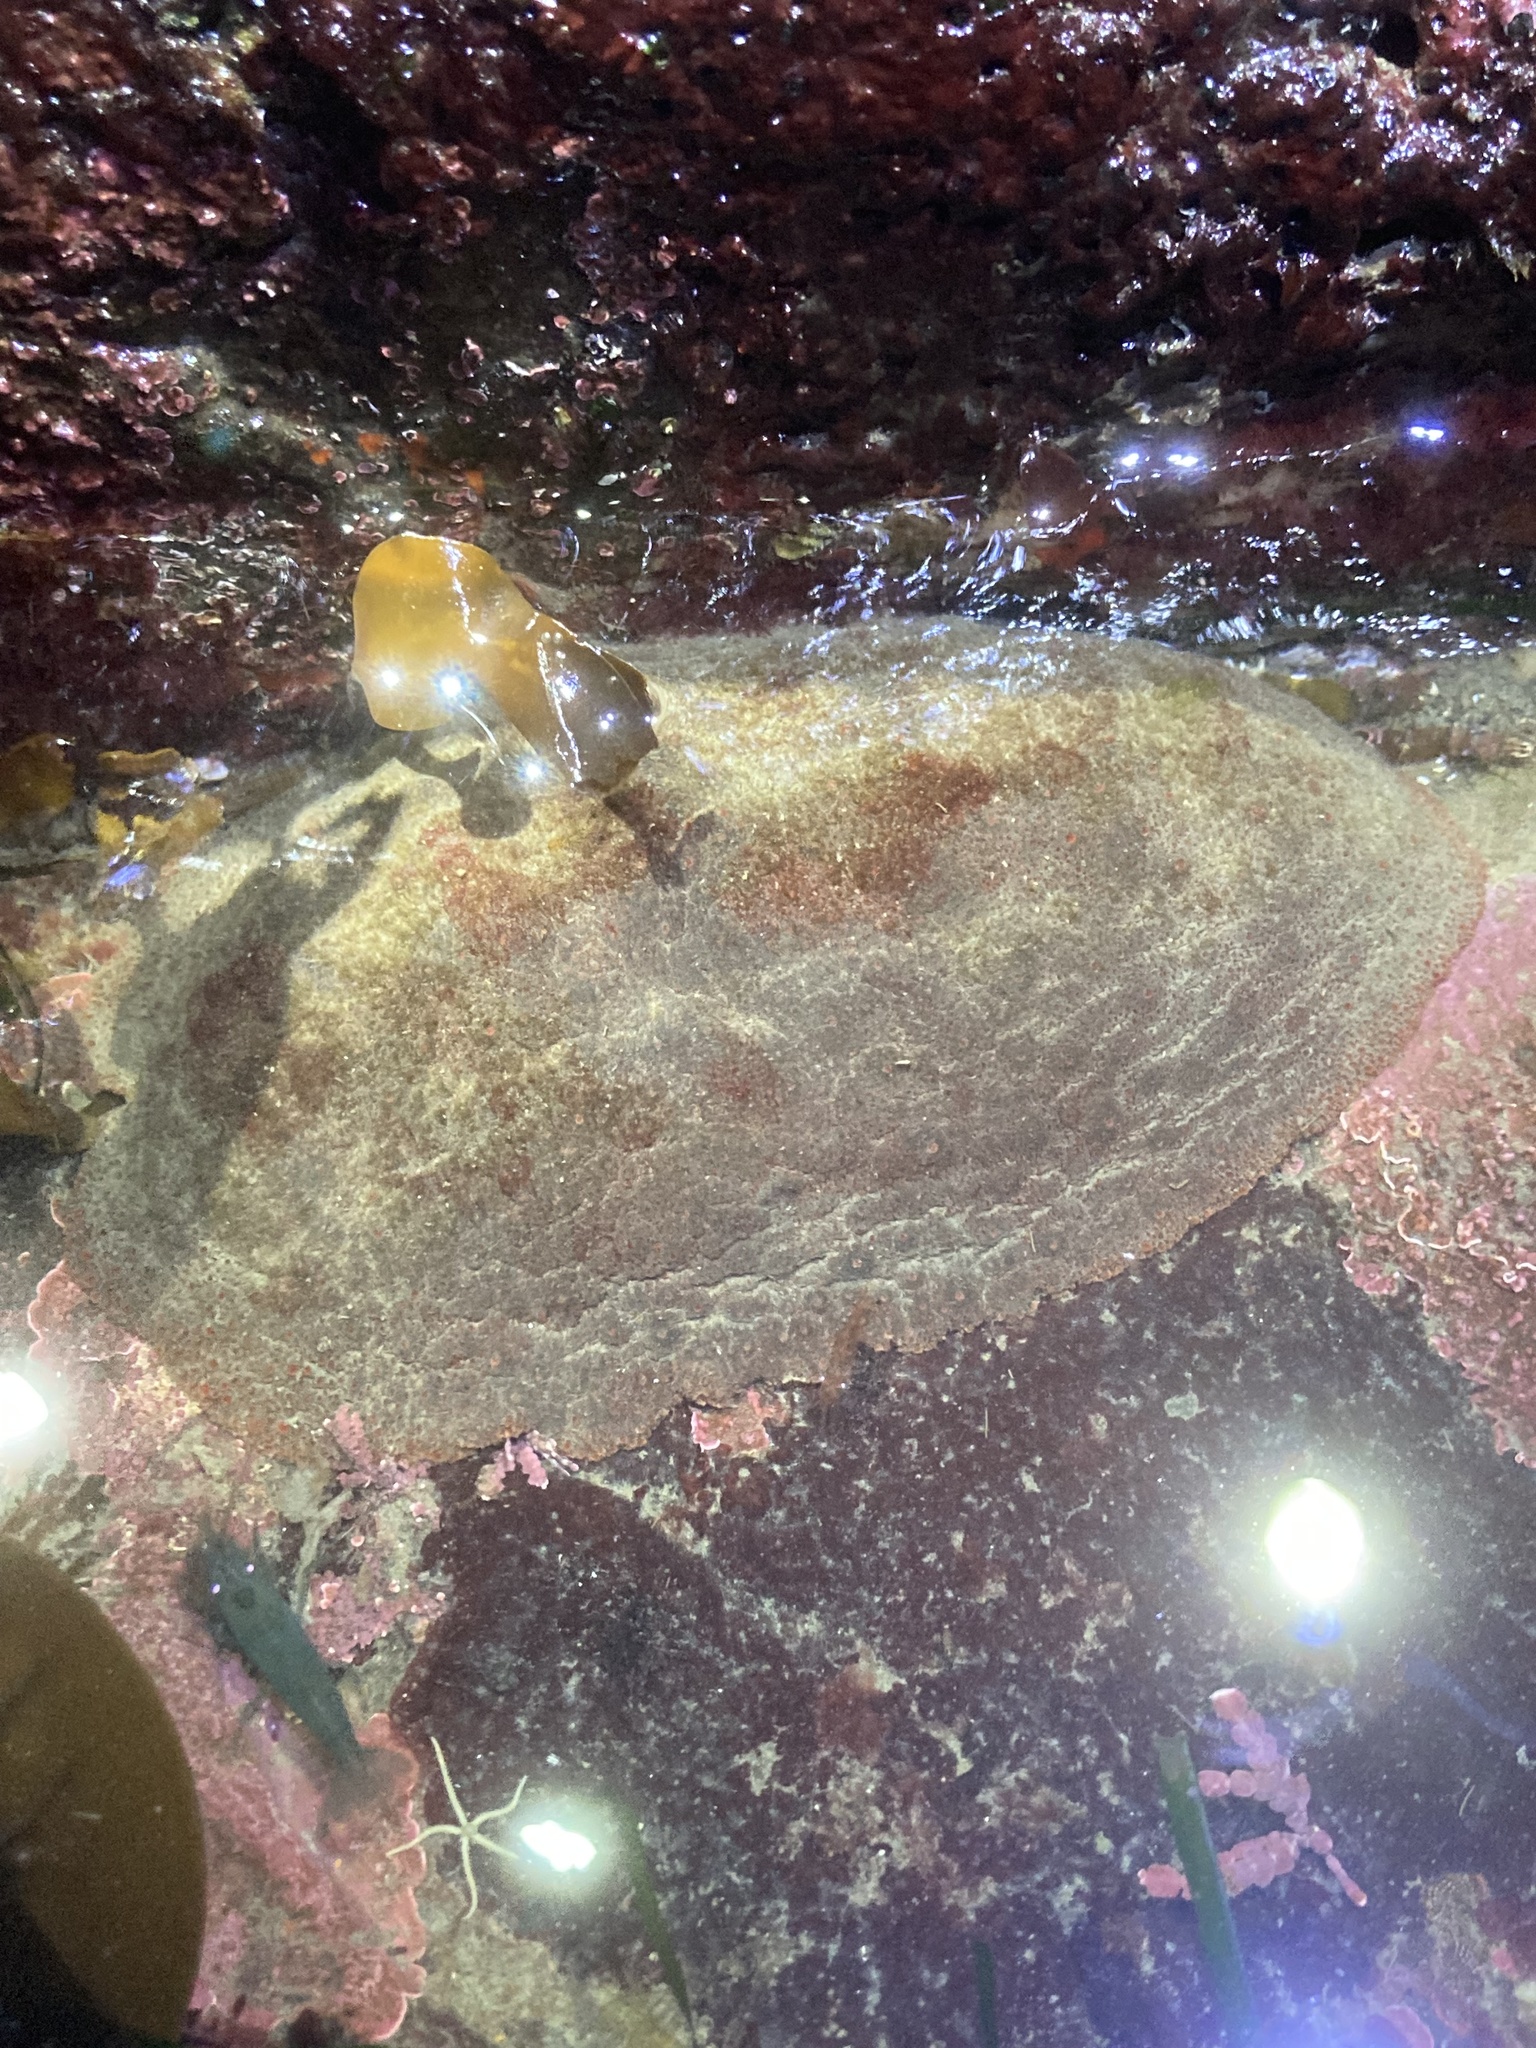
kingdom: Animalia
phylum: Mollusca
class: Polyplacophora
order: Chitonida
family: Acanthochitonidae
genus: Cryptochiton
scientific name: Cryptochiton stelleri
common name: Giant pacific chiton
